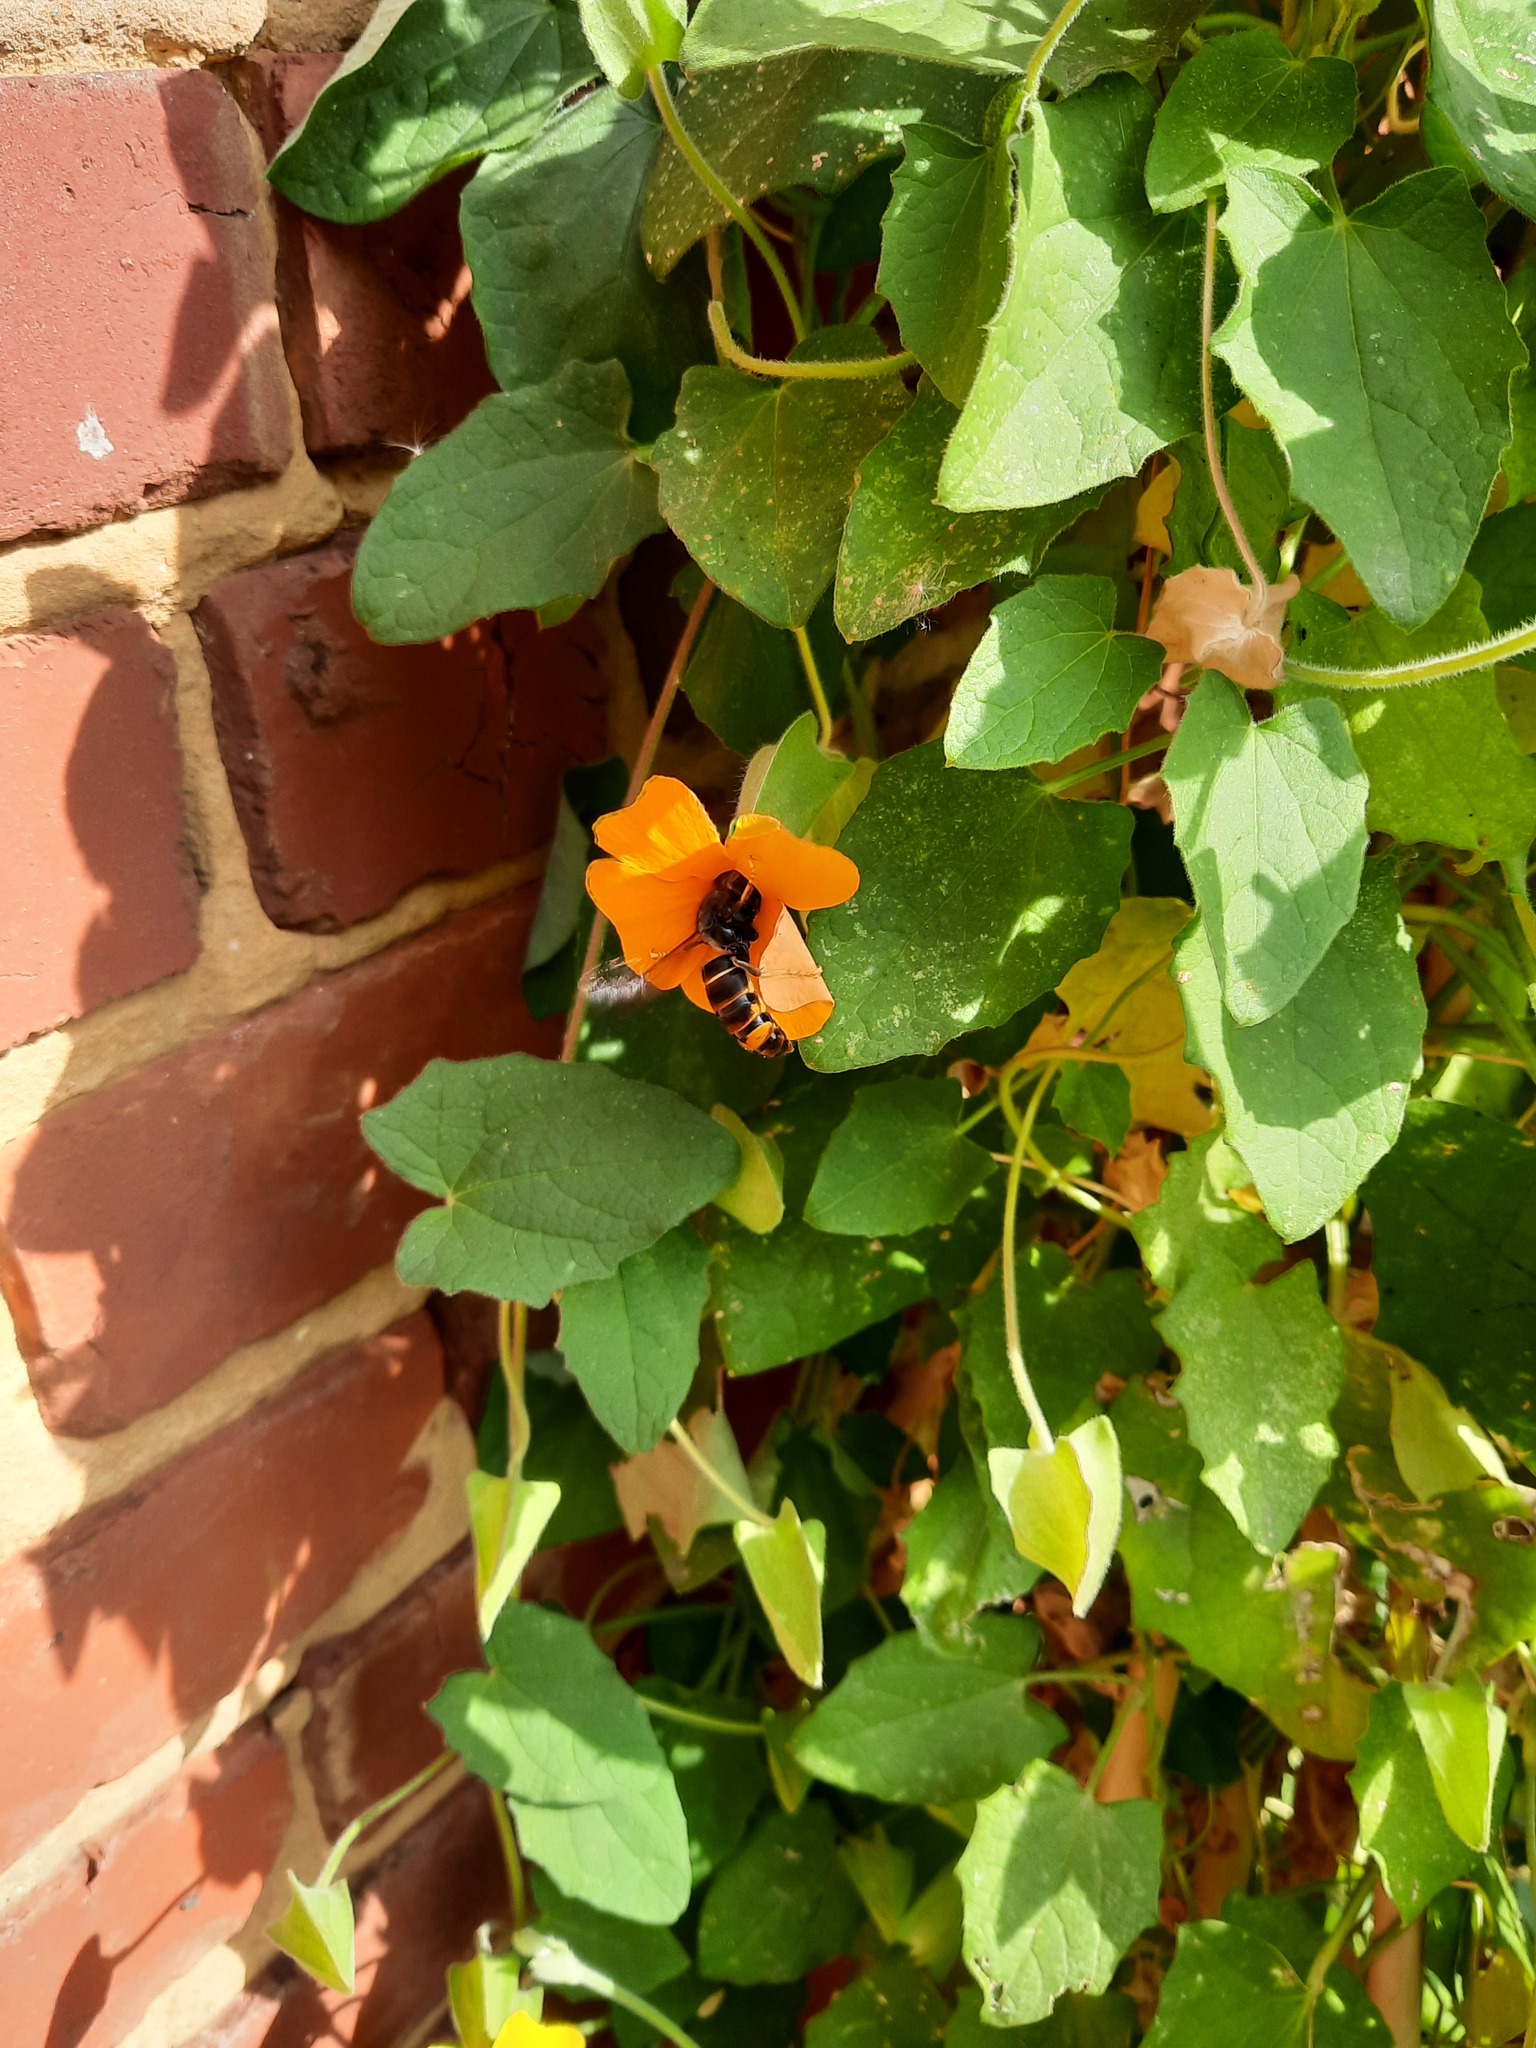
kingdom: Animalia
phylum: Arthropoda
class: Insecta
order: Hymenoptera
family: Vespidae
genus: Vespa
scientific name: Vespa velutina
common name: Asian hornet
